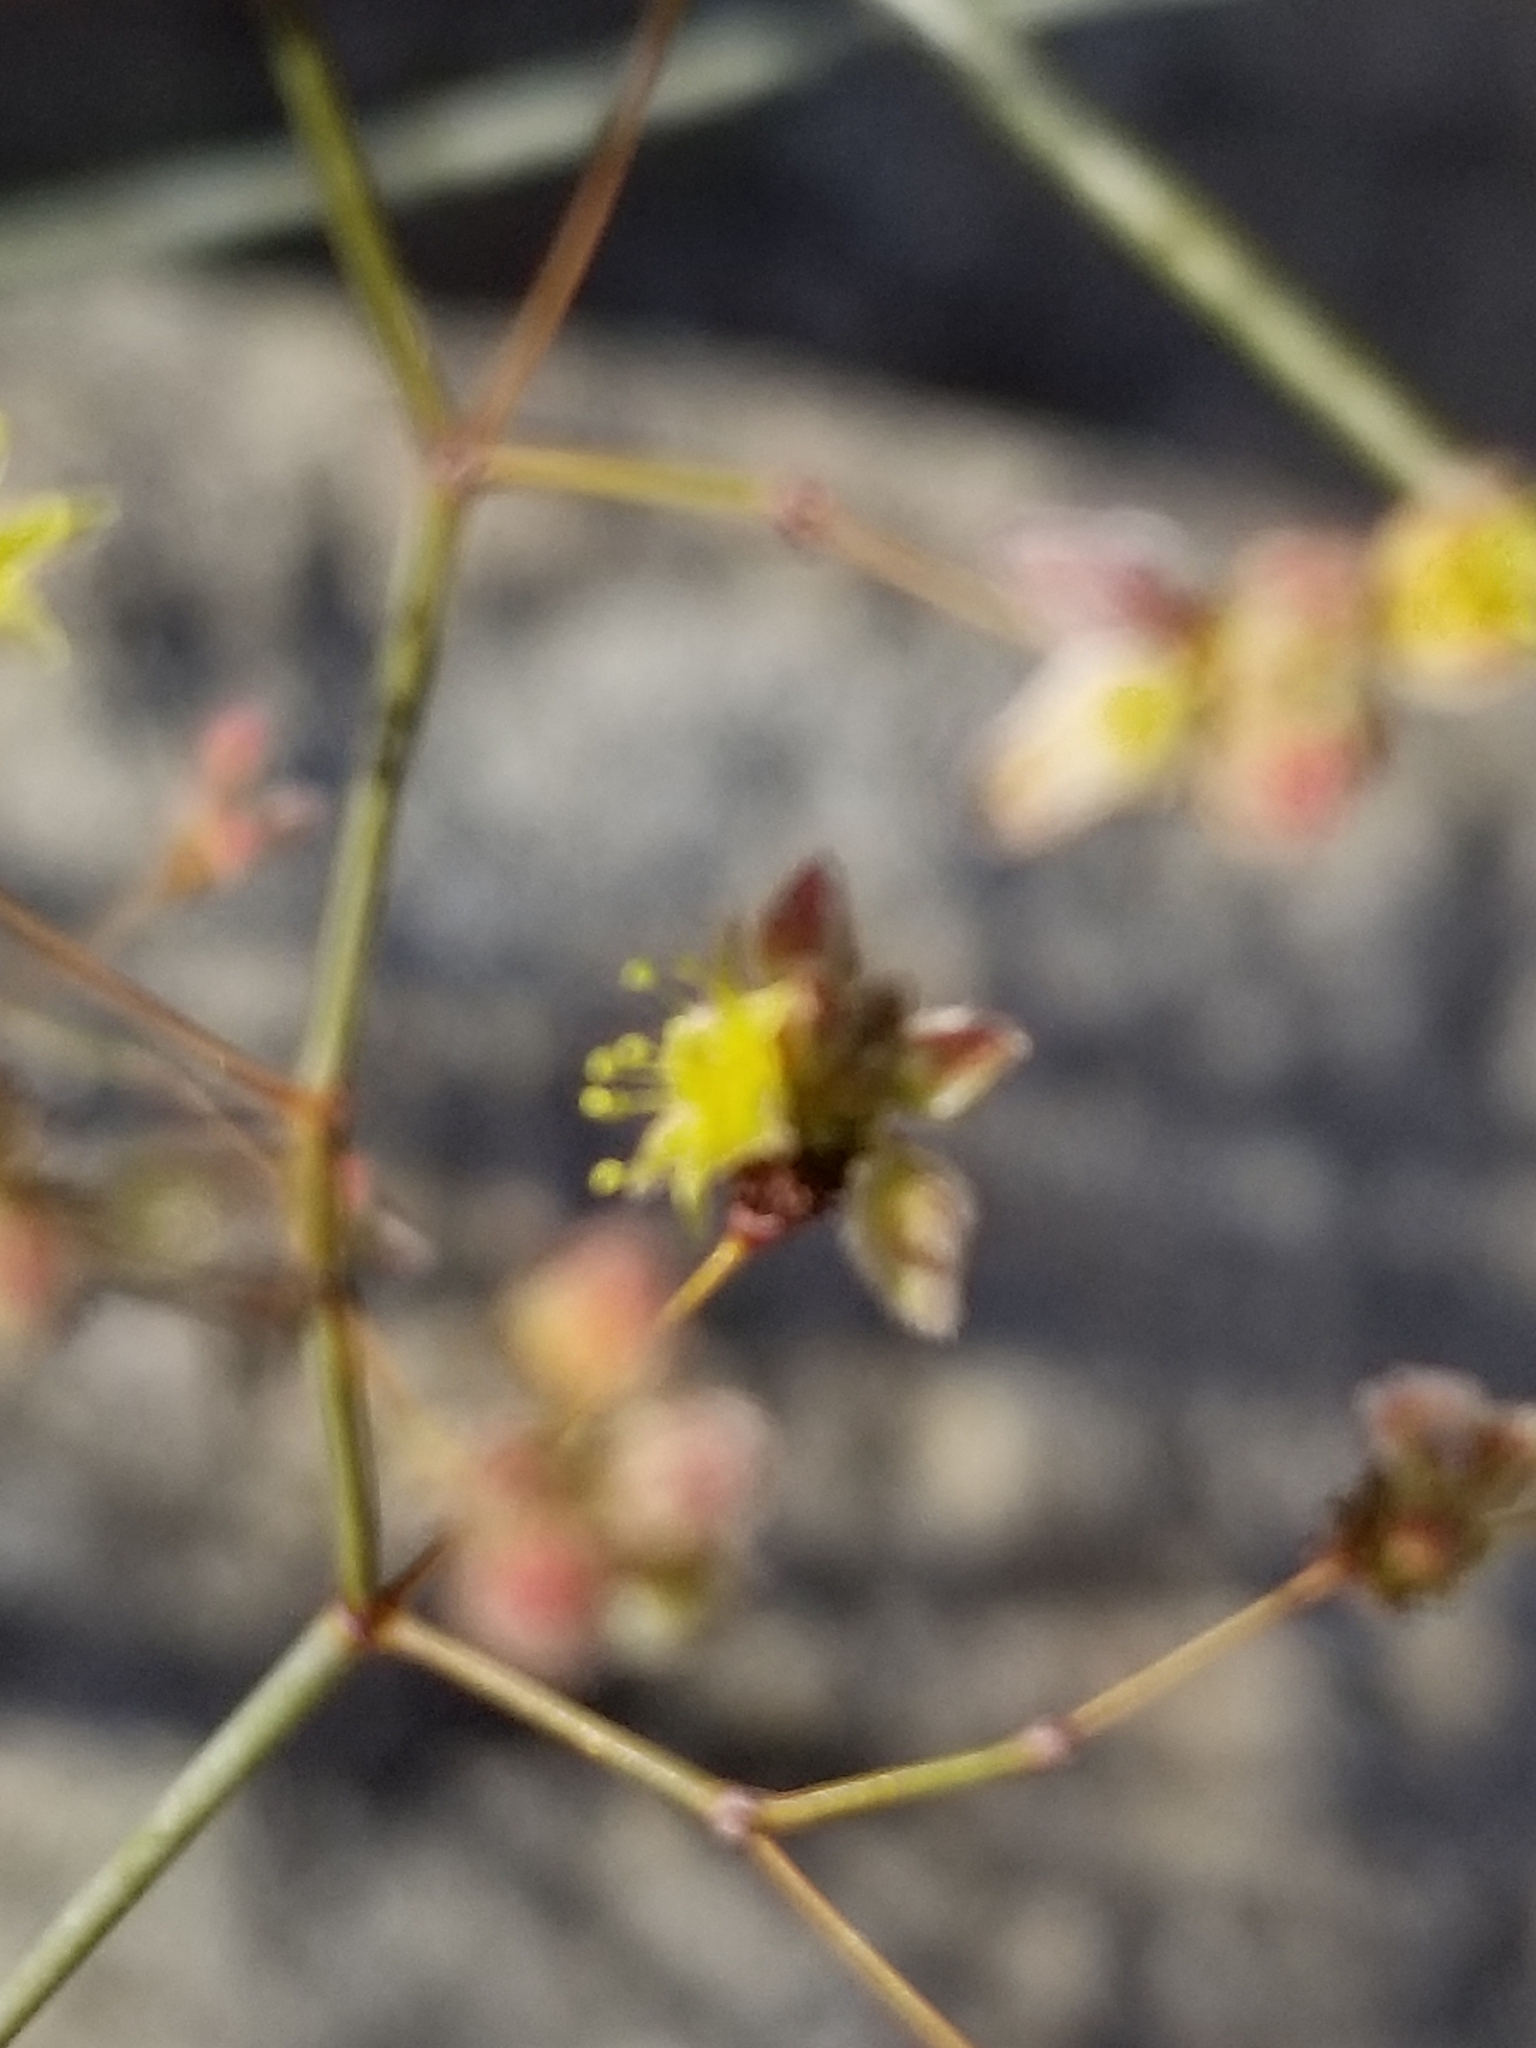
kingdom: Plantae
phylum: Tracheophyta
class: Magnoliopsida
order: Caryophyllales
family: Polygonaceae
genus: Eriogonum
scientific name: Eriogonum inflatum
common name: Desert trumpet
